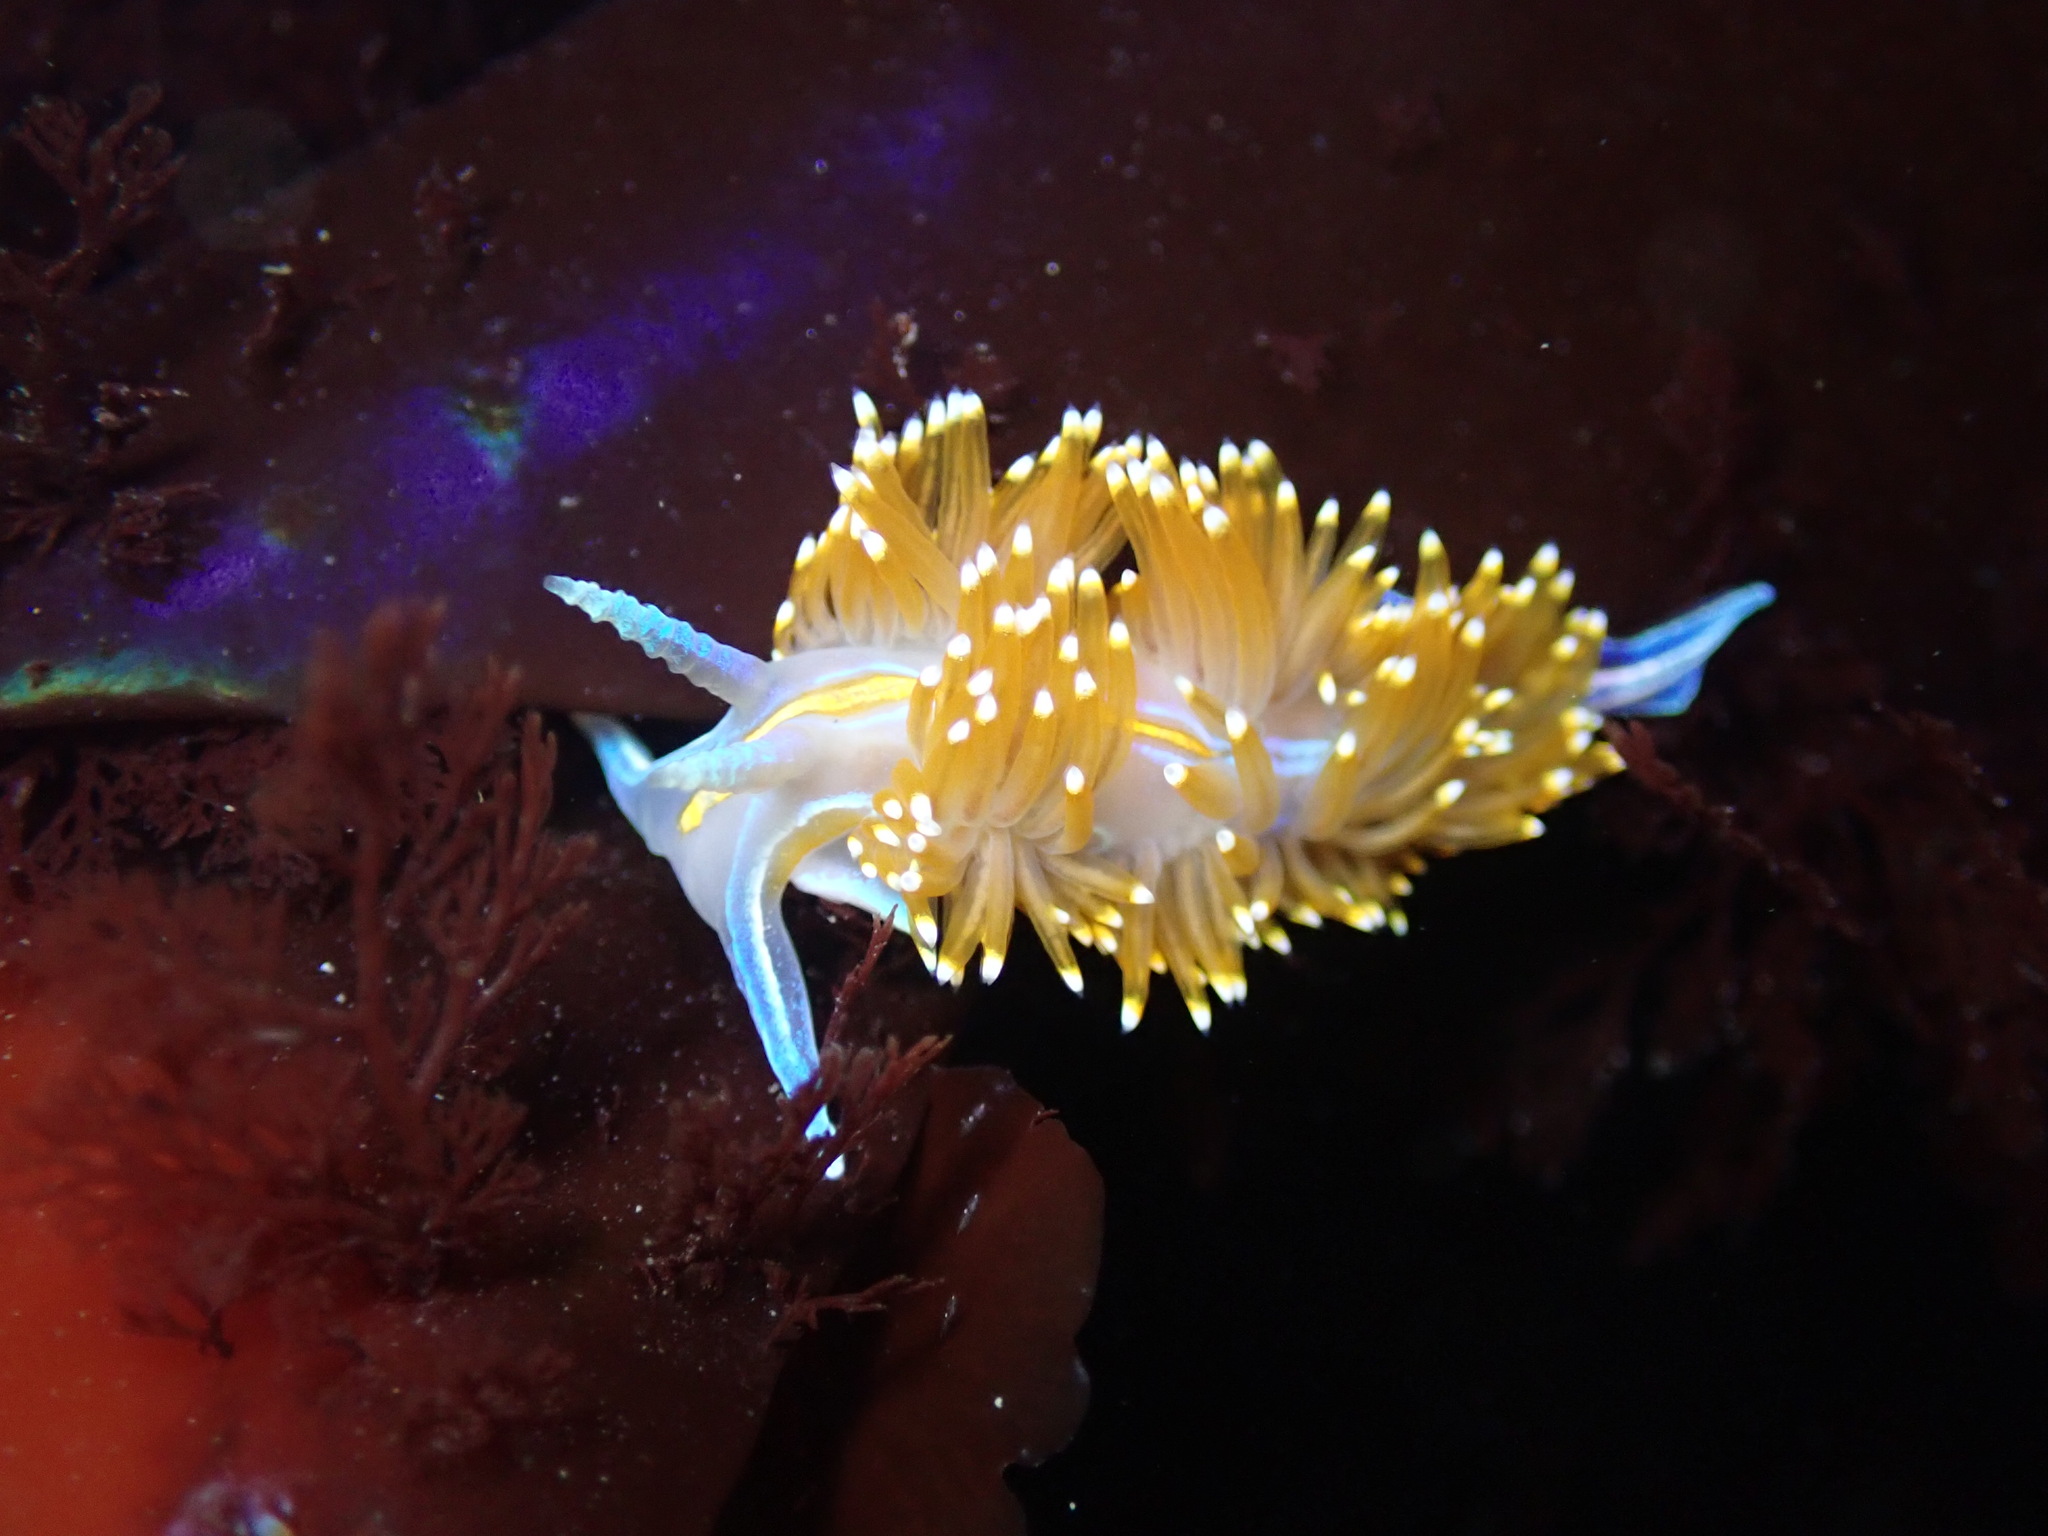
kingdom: Animalia
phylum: Mollusca
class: Gastropoda
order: Nudibranchia
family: Myrrhinidae
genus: Hermissenda
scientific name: Hermissenda opalescens
